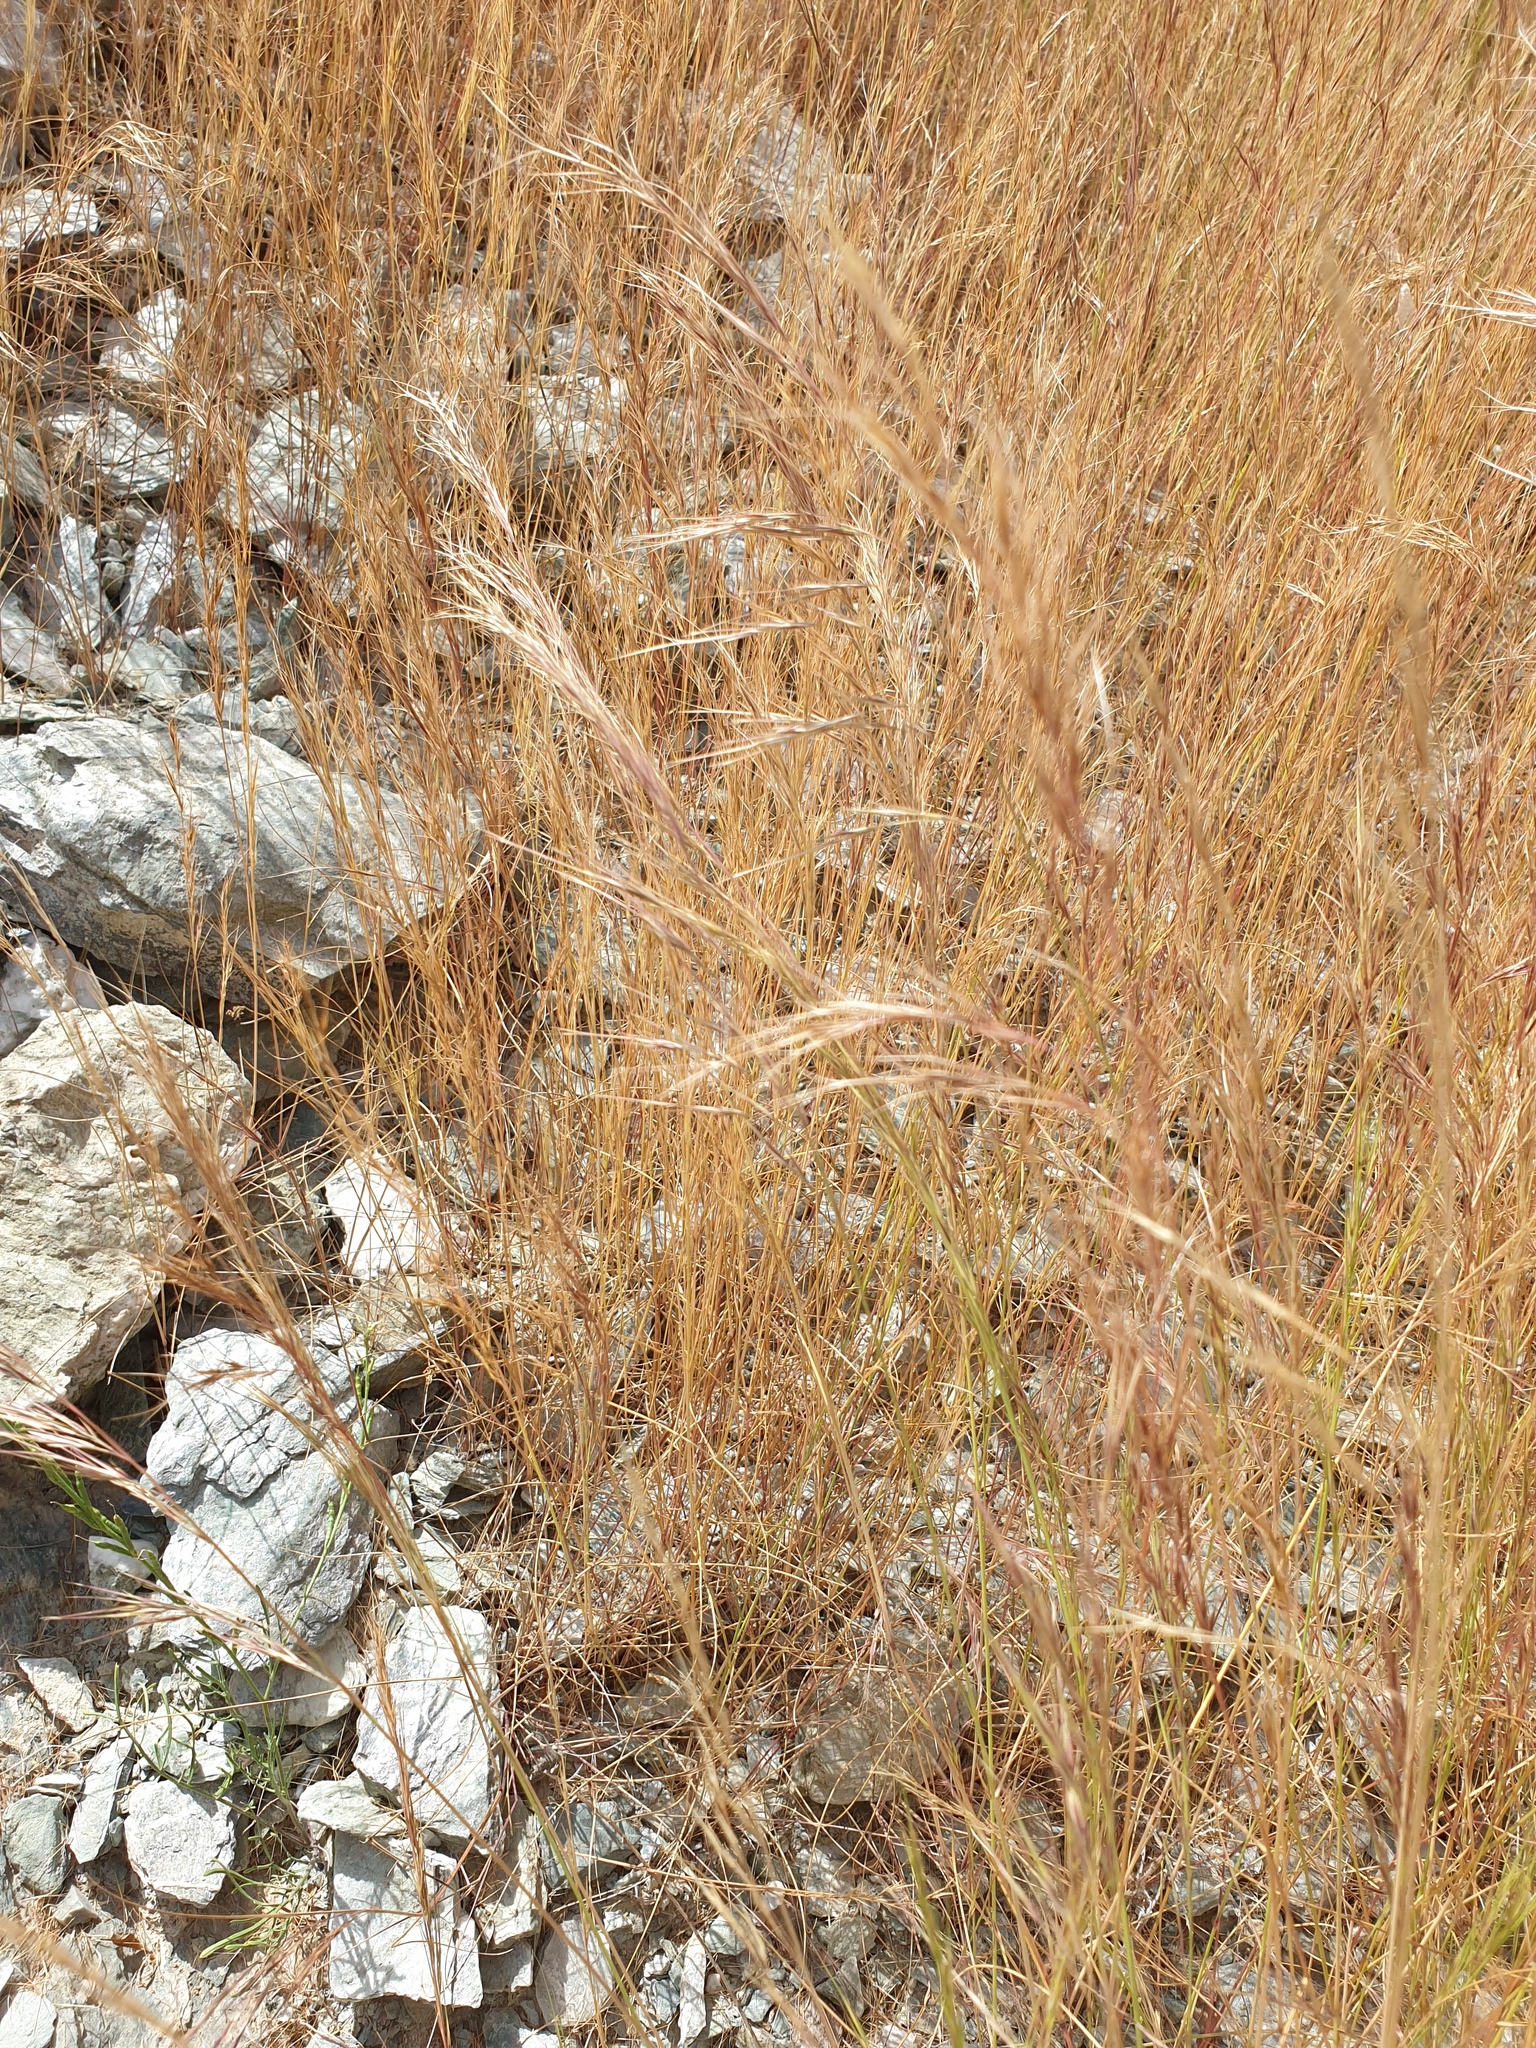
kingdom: Plantae
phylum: Tracheophyta
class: Liliopsida
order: Poales
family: Poaceae
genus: Aristida
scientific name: Aristida adscensionis
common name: Sixweeks threeawn
